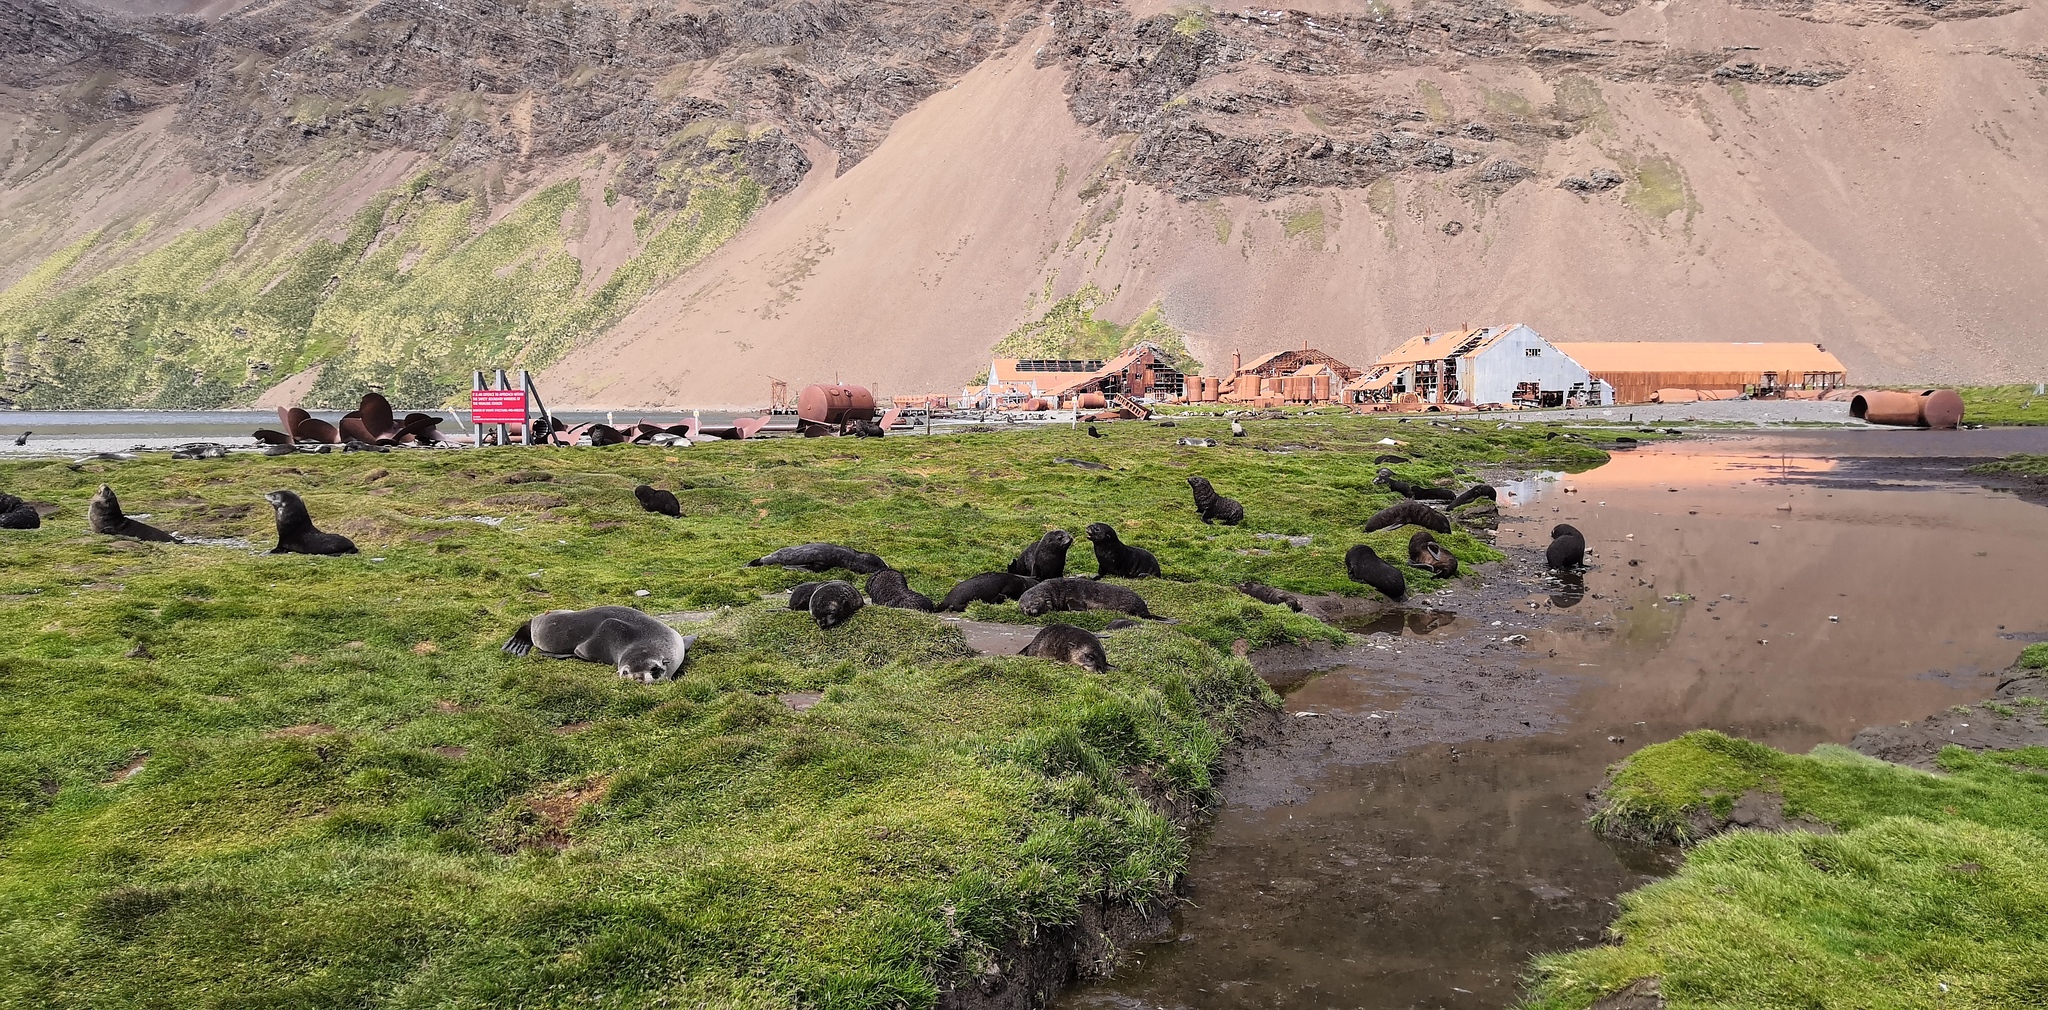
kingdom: Animalia
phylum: Chordata
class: Mammalia
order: Carnivora
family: Otariidae
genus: Arctocephalus
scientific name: Arctocephalus gazella
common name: Antarctic fur seal
